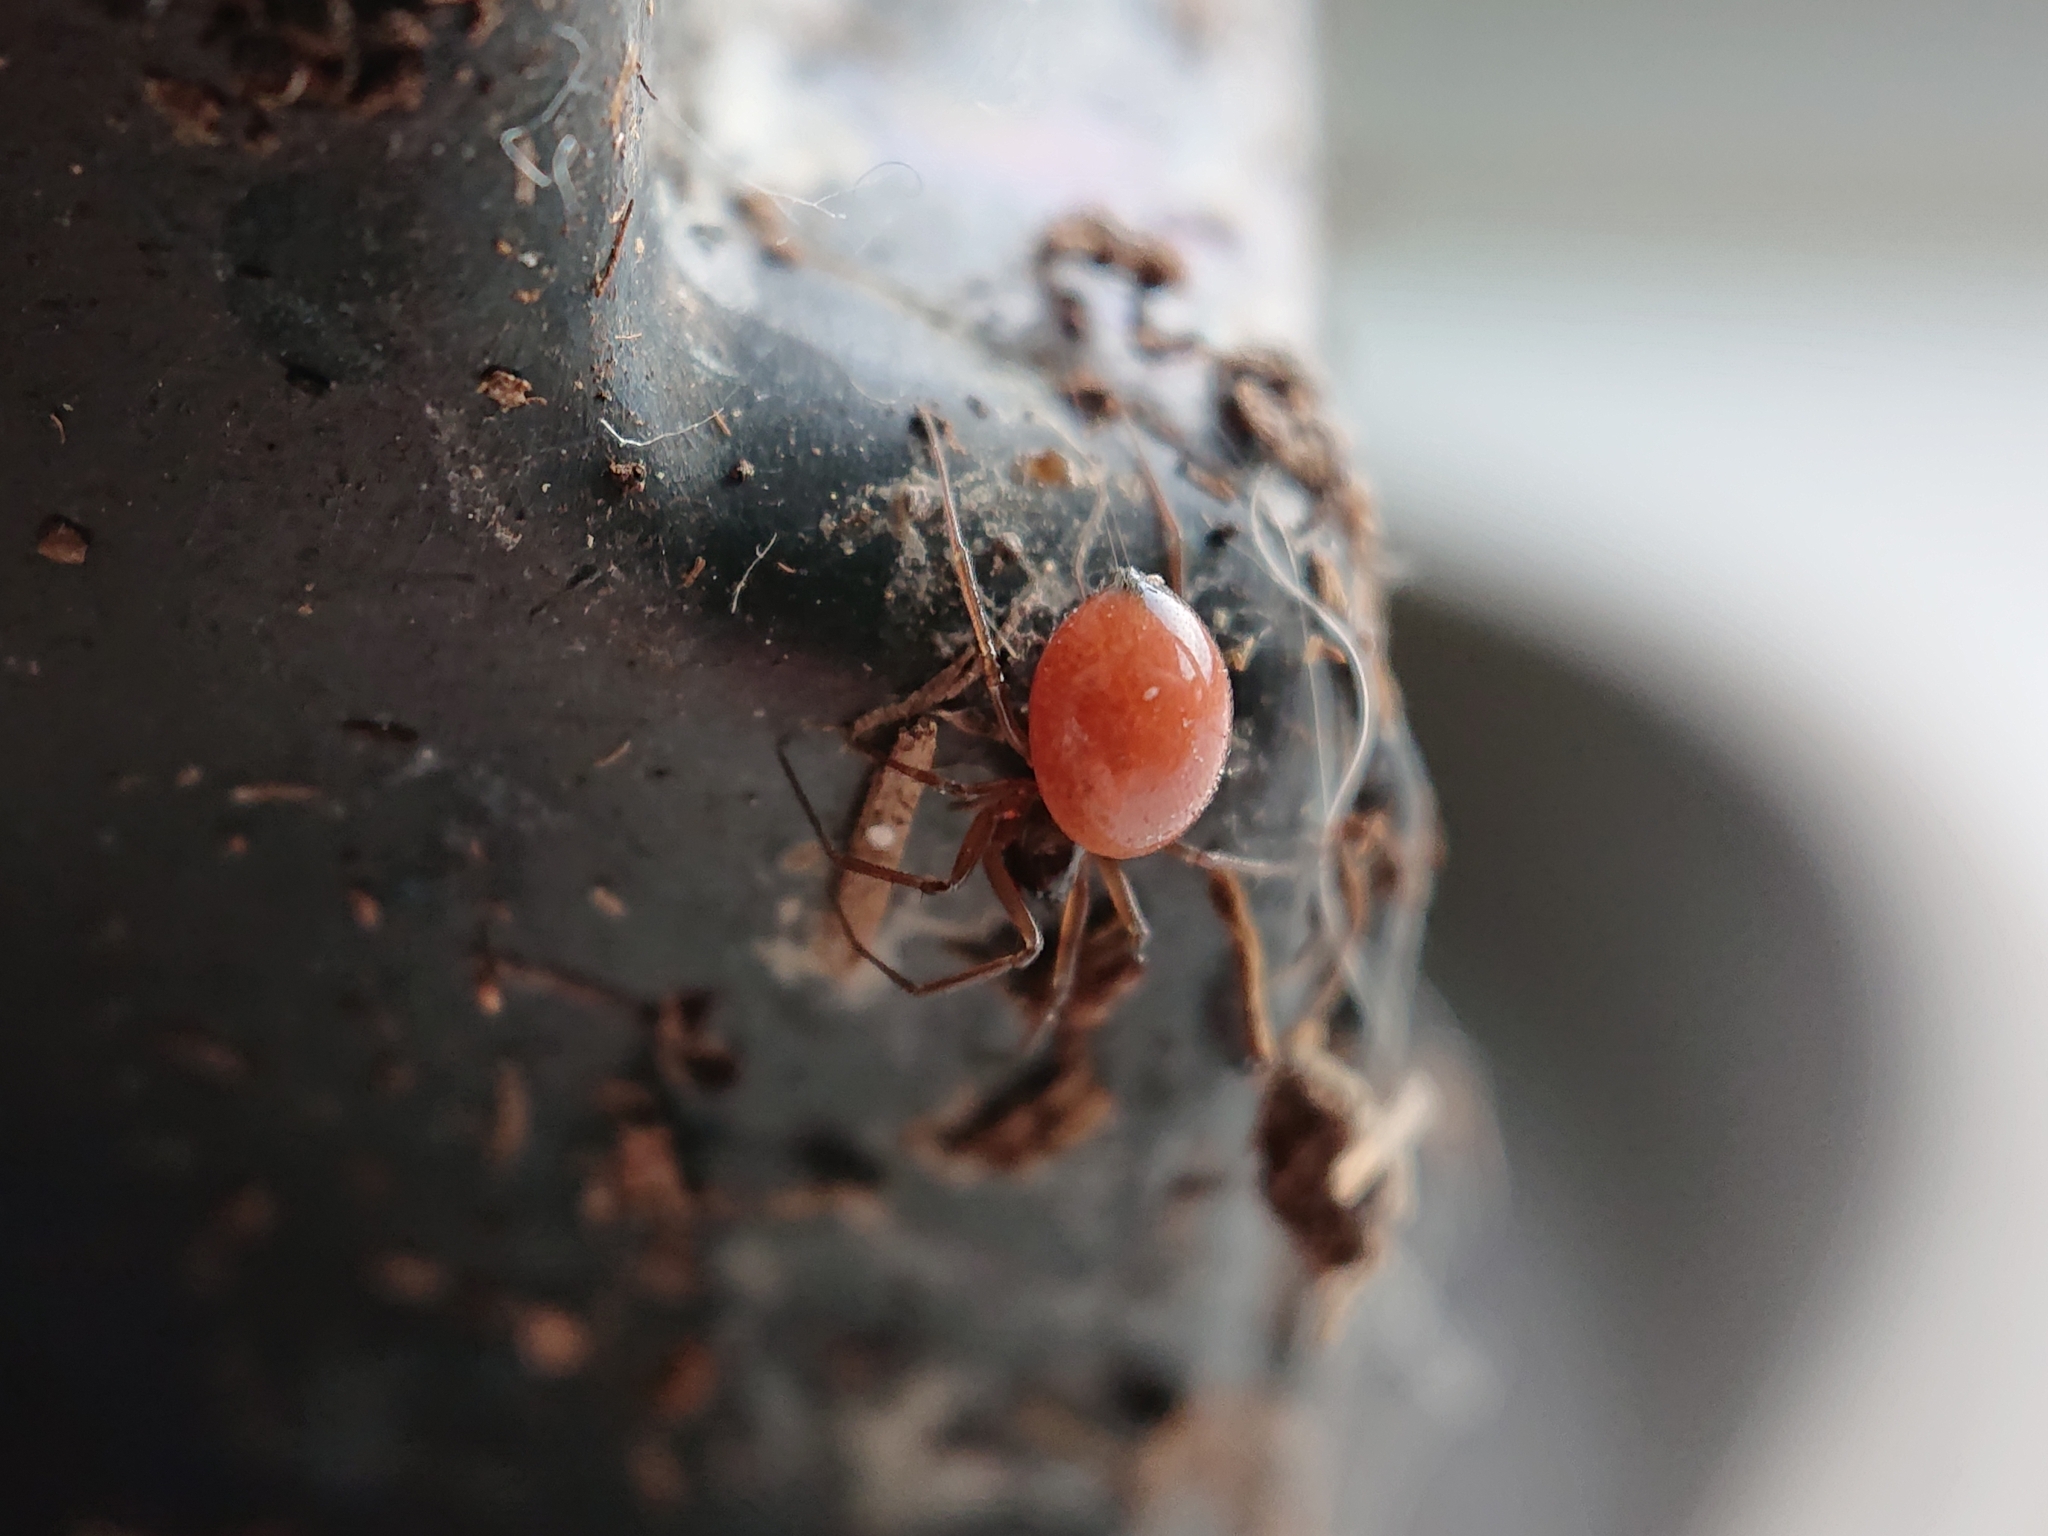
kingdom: Animalia
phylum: Arthropoda
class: Arachnida
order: Araneae
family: Linyphiidae
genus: Ostearius
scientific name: Ostearius melanopygius
